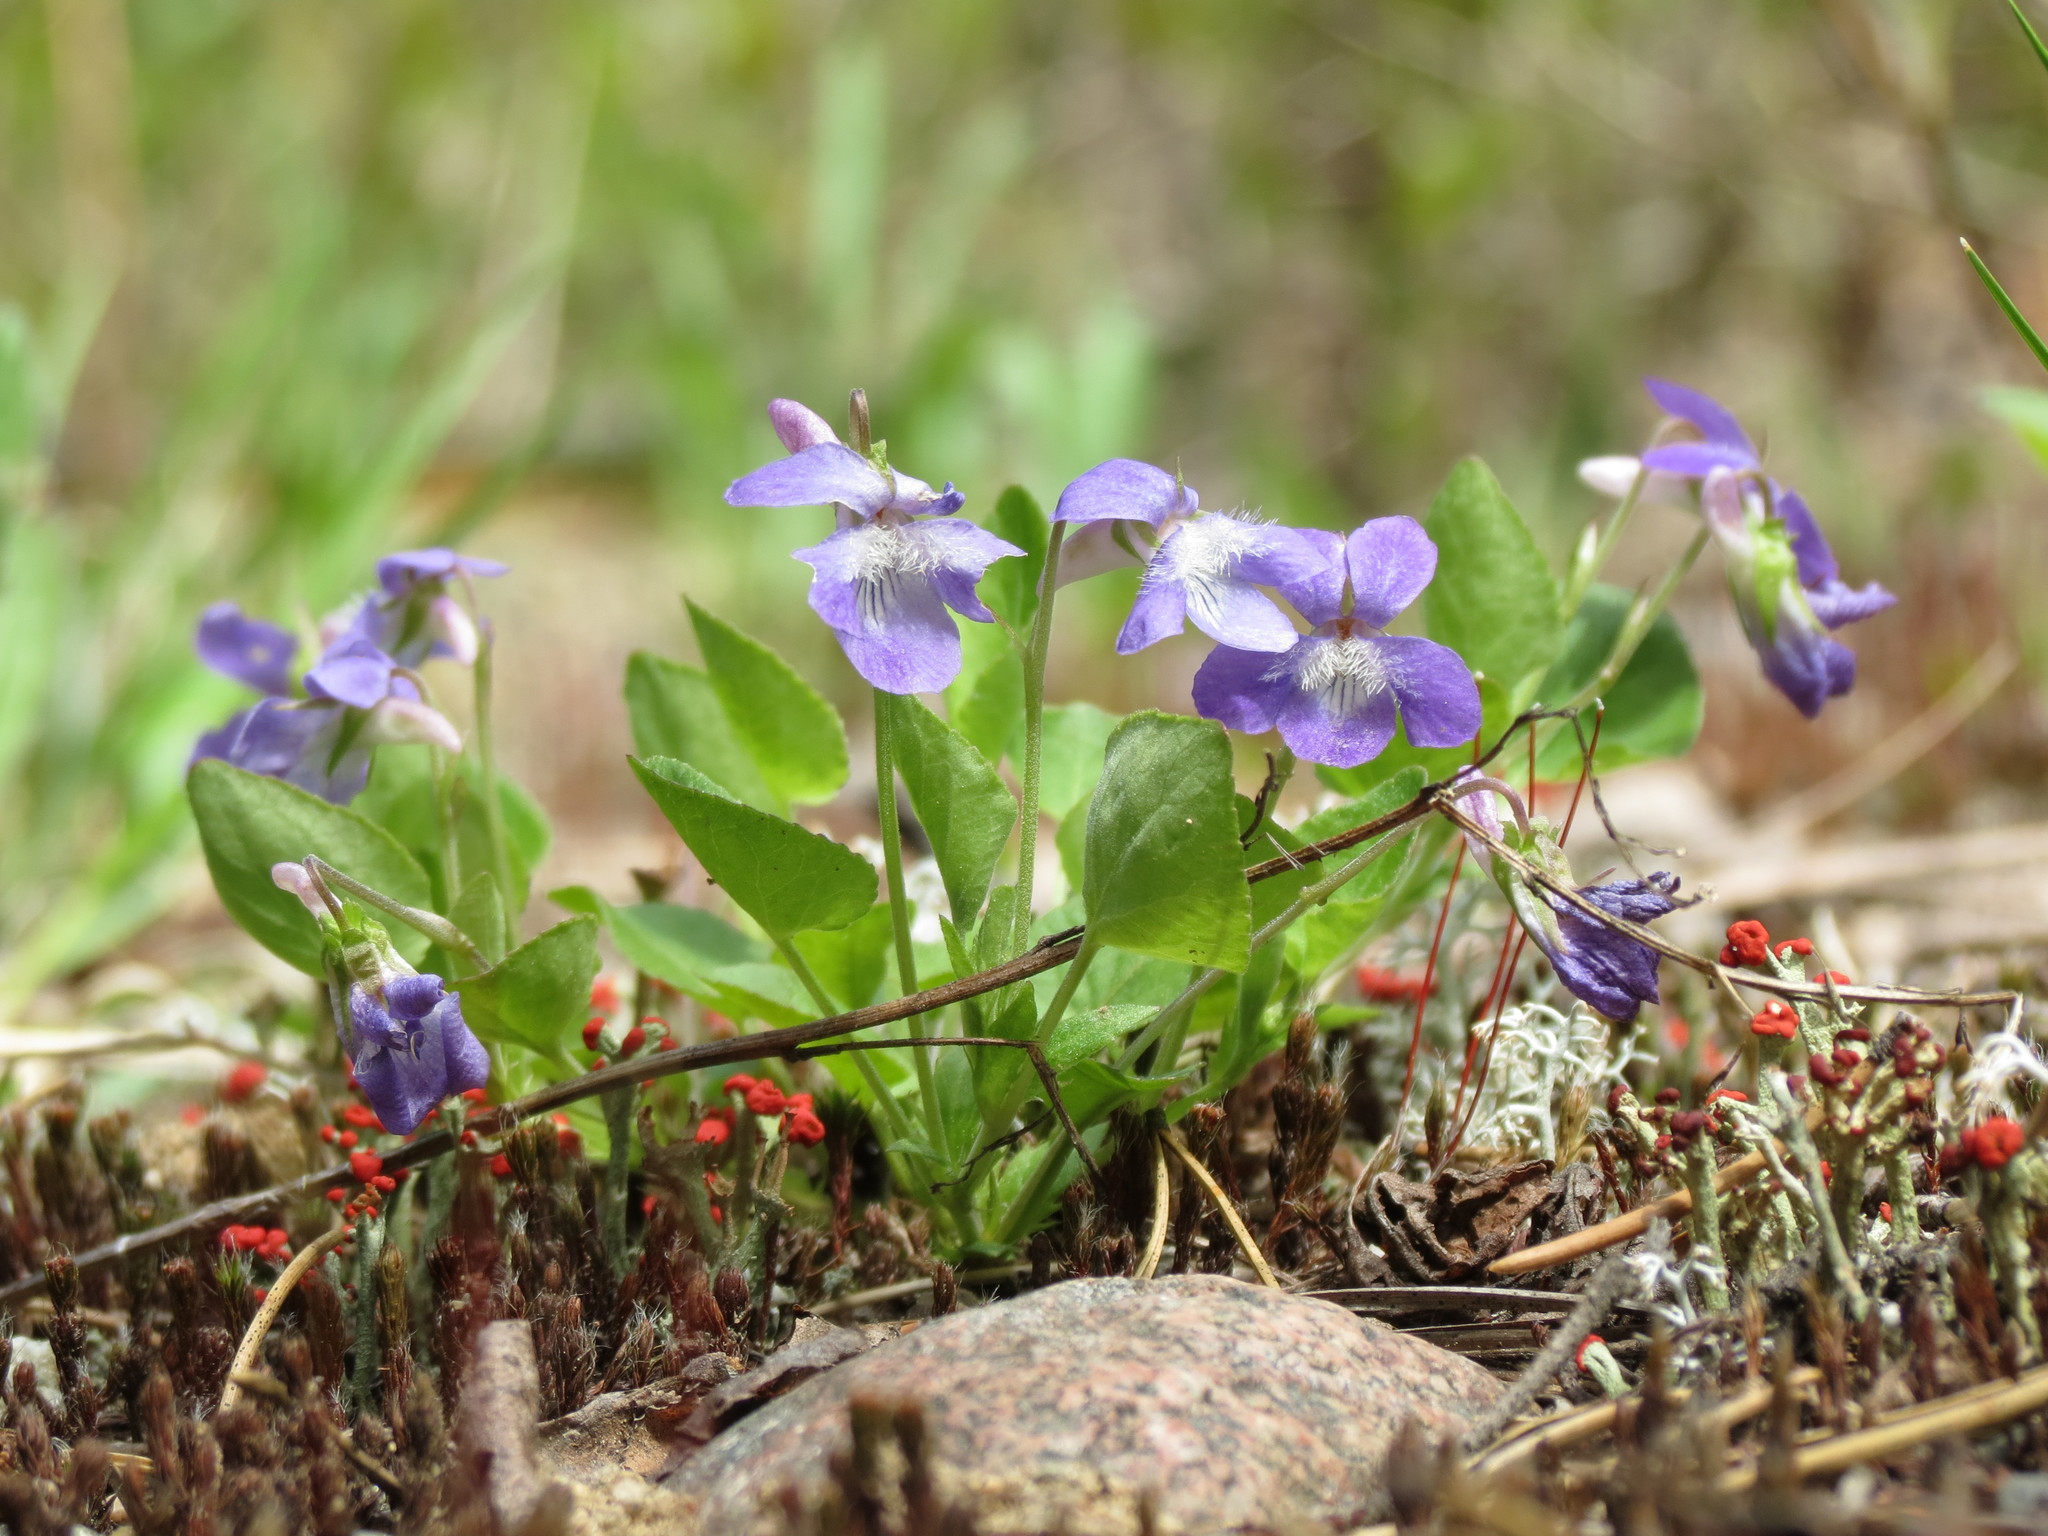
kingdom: Plantae
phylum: Tracheophyta
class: Magnoliopsida
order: Malpighiales
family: Violaceae
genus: Viola
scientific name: Viola adunca
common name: Sand violet
